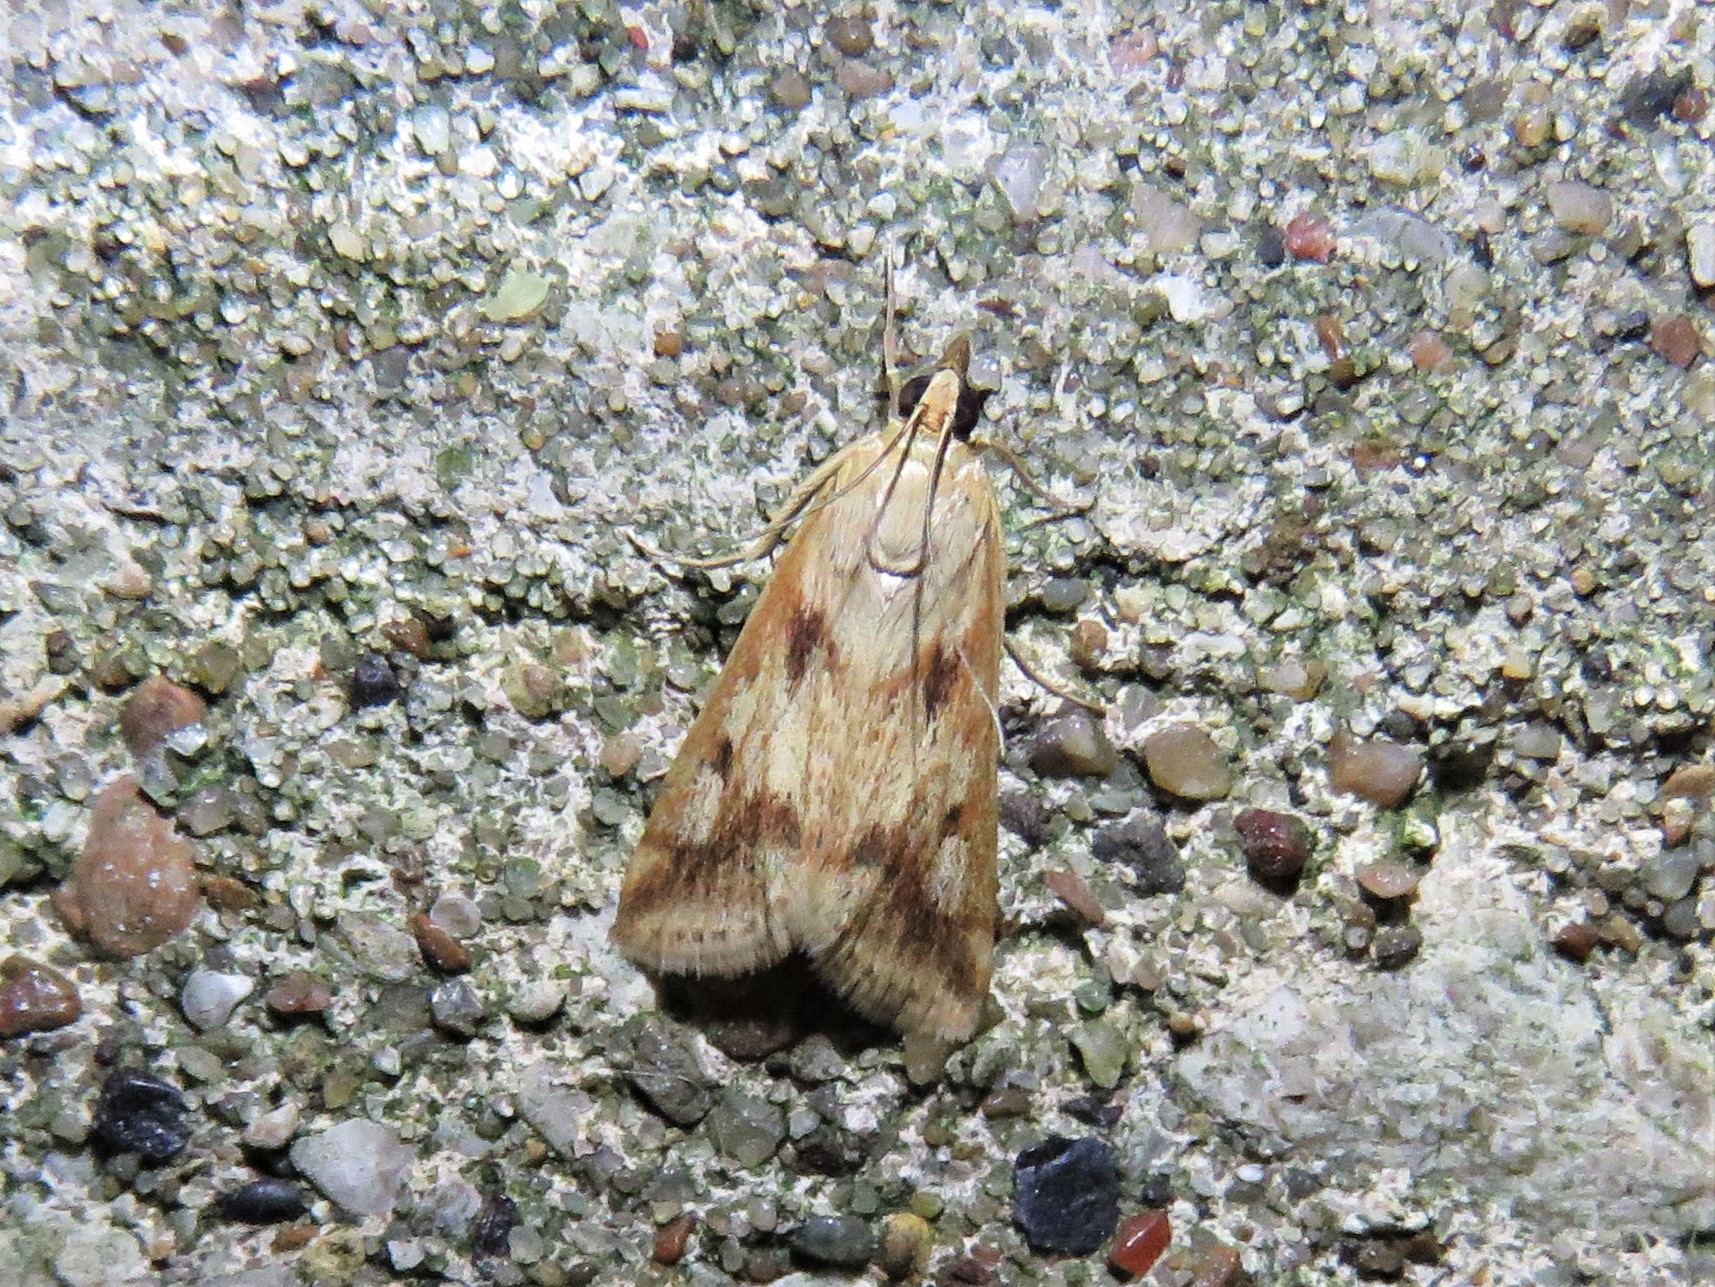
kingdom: Animalia
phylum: Arthropoda
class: Insecta
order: Lepidoptera
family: Crambidae
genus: Achyra
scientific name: Achyra bifidalis
